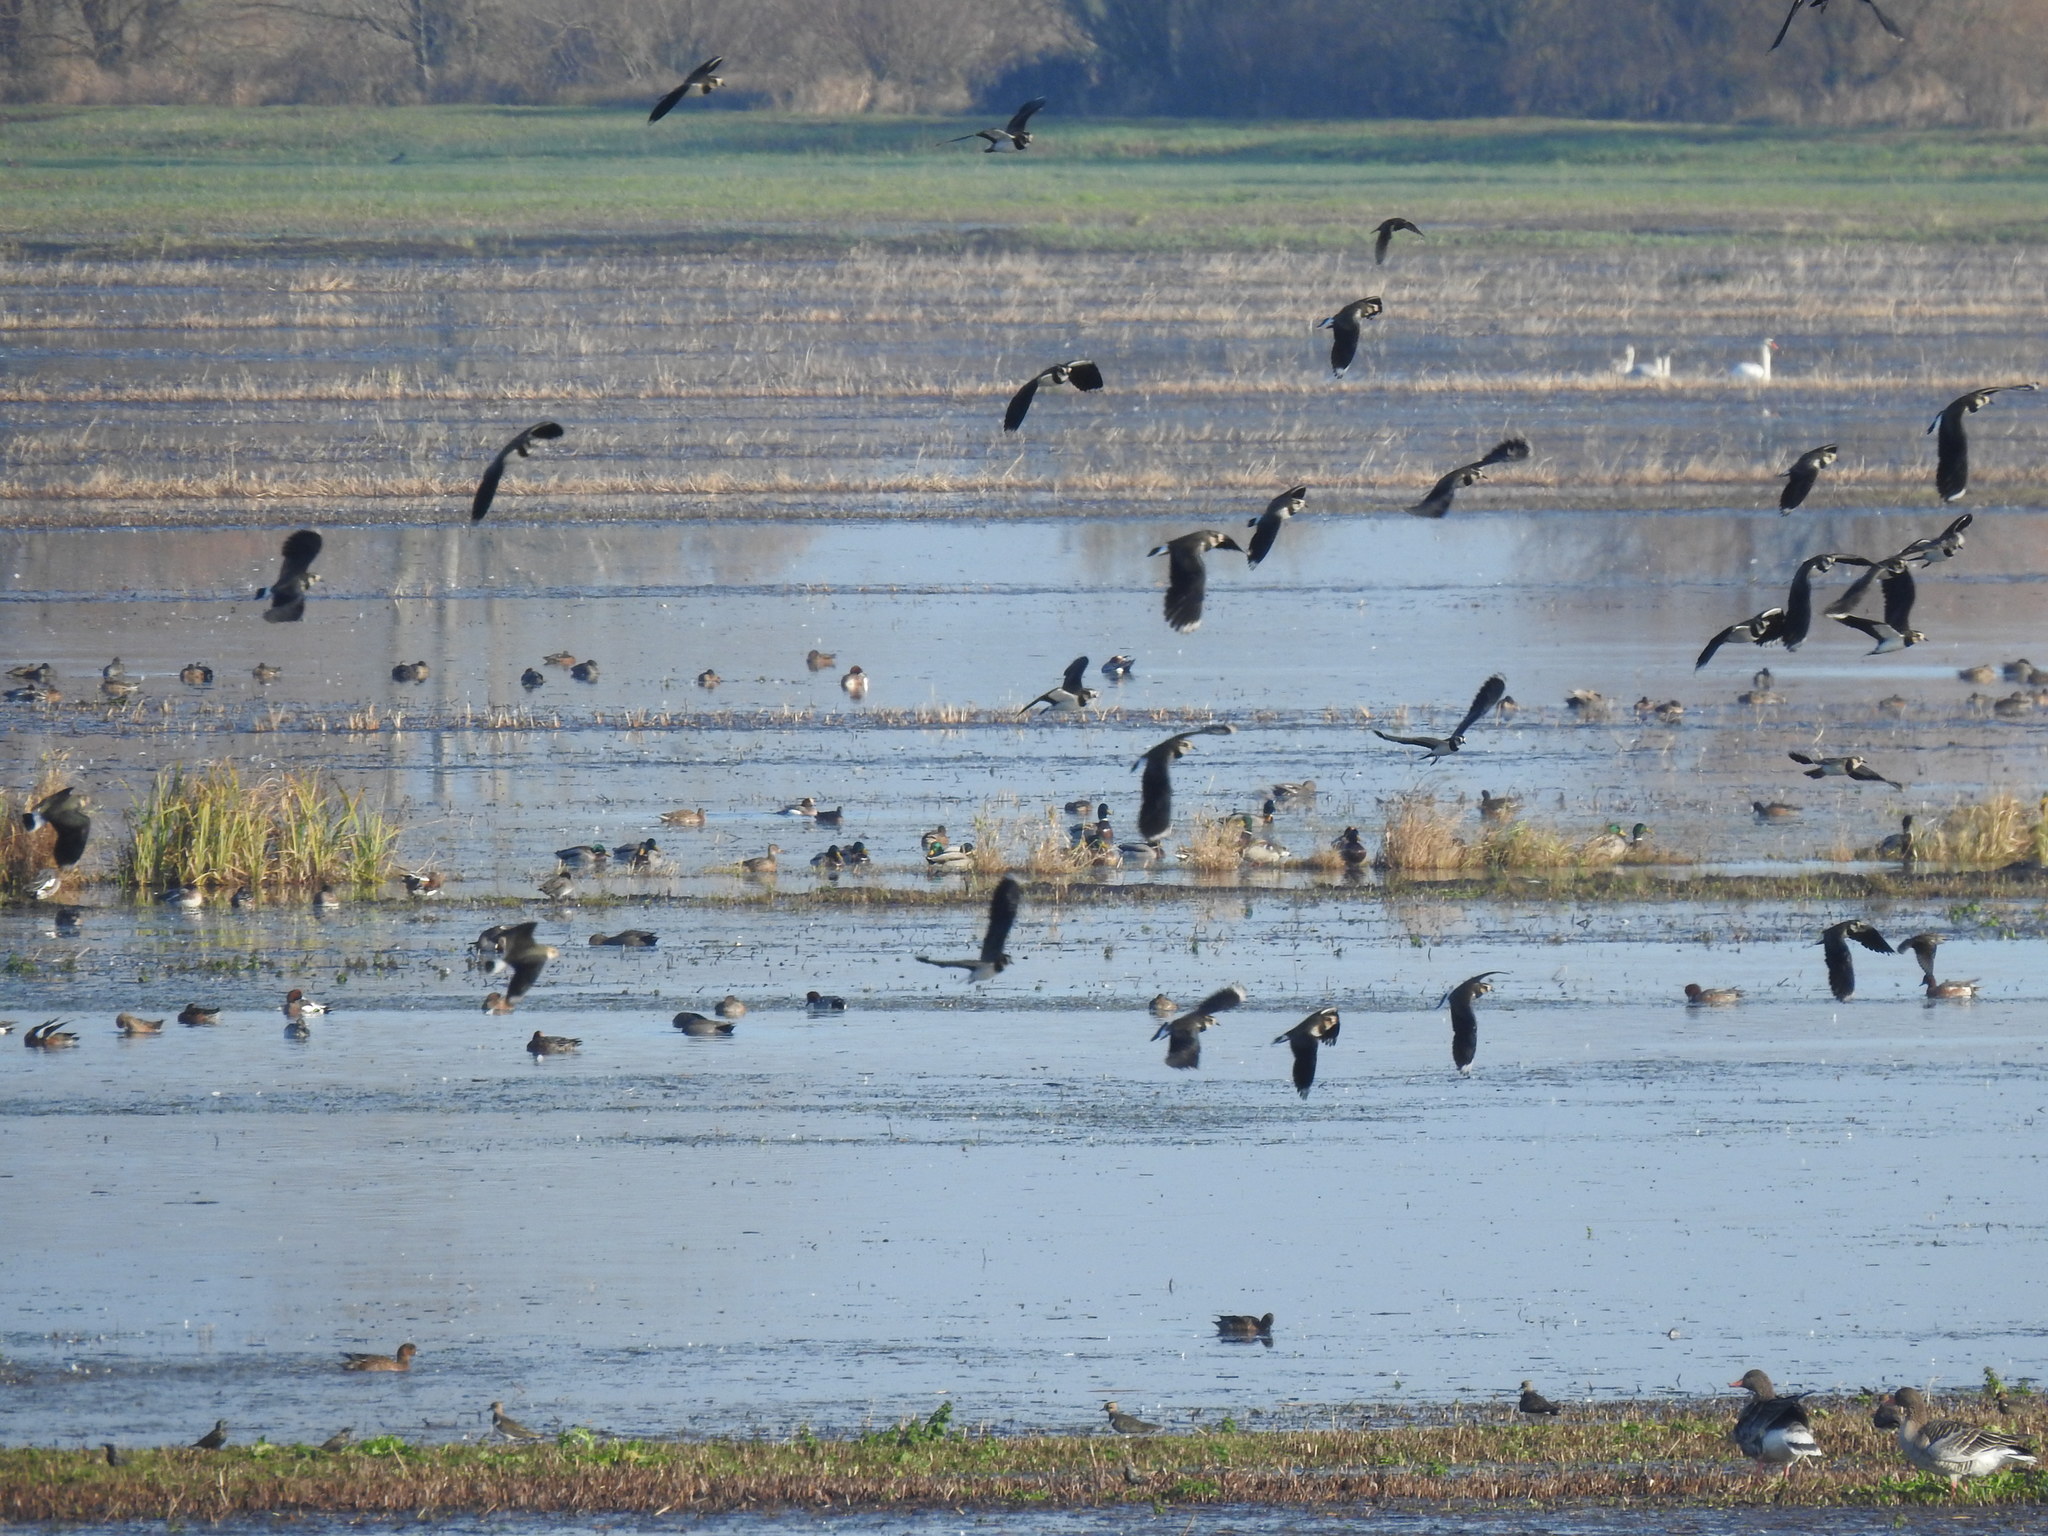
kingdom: Animalia
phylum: Chordata
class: Aves
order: Charadriiformes
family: Charadriidae
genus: Vanellus
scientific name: Vanellus vanellus
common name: Northern lapwing
